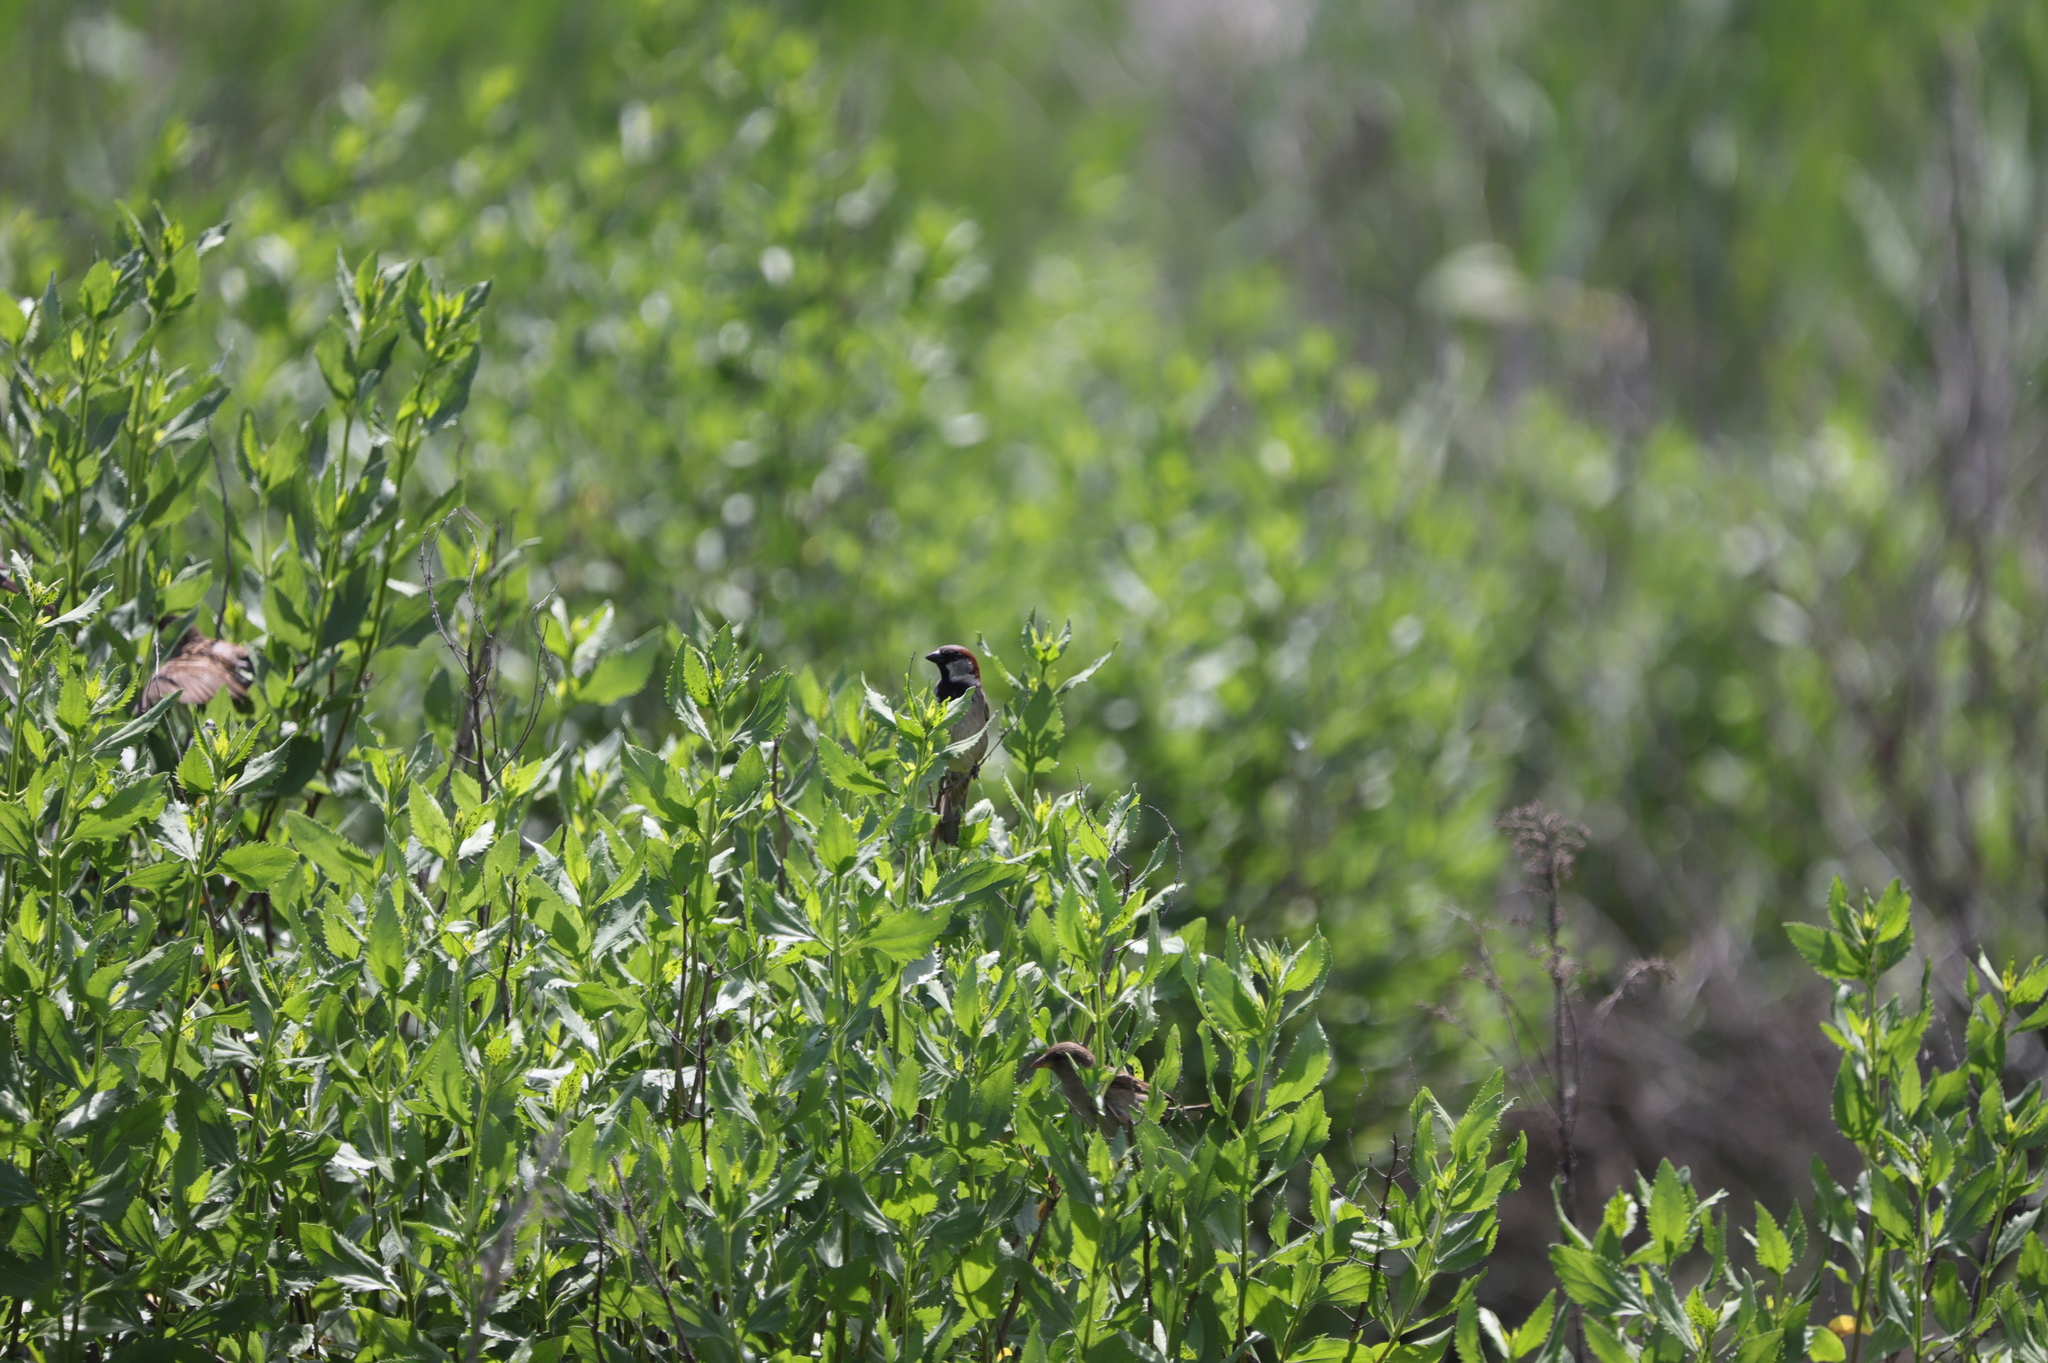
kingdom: Animalia
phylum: Chordata
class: Aves
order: Passeriformes
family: Passeridae
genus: Passer
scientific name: Passer domesticus
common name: House sparrow
